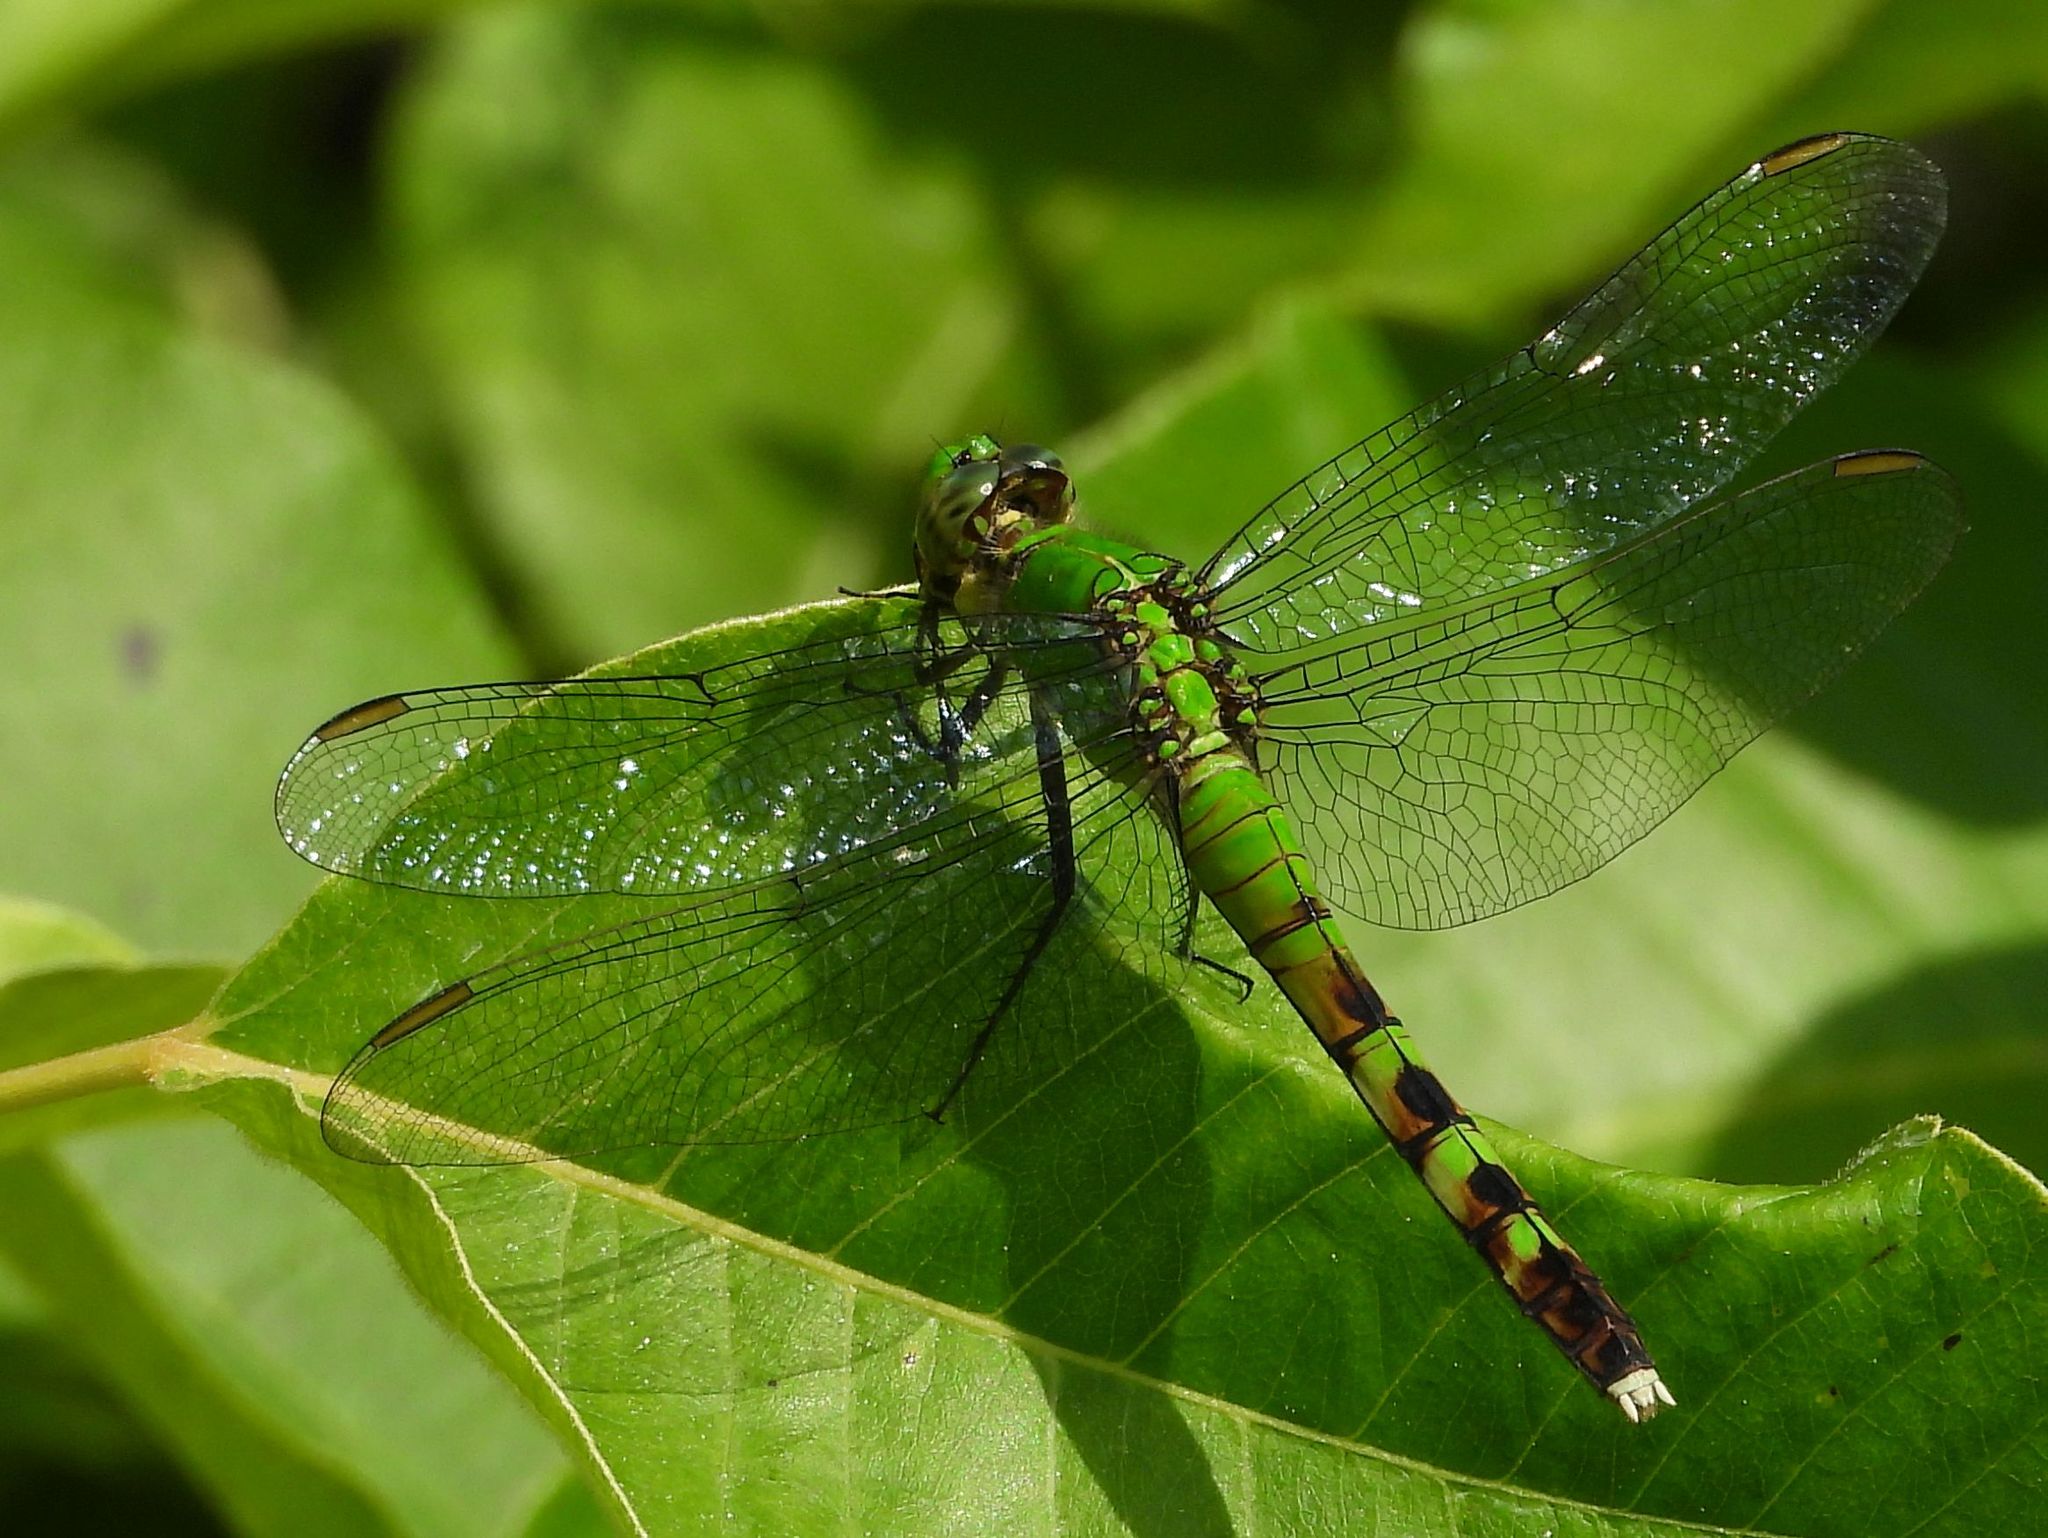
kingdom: Animalia
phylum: Arthropoda
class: Insecta
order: Odonata
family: Libellulidae
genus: Erythemis
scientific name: Erythemis simplicicollis
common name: Eastern pondhawk
